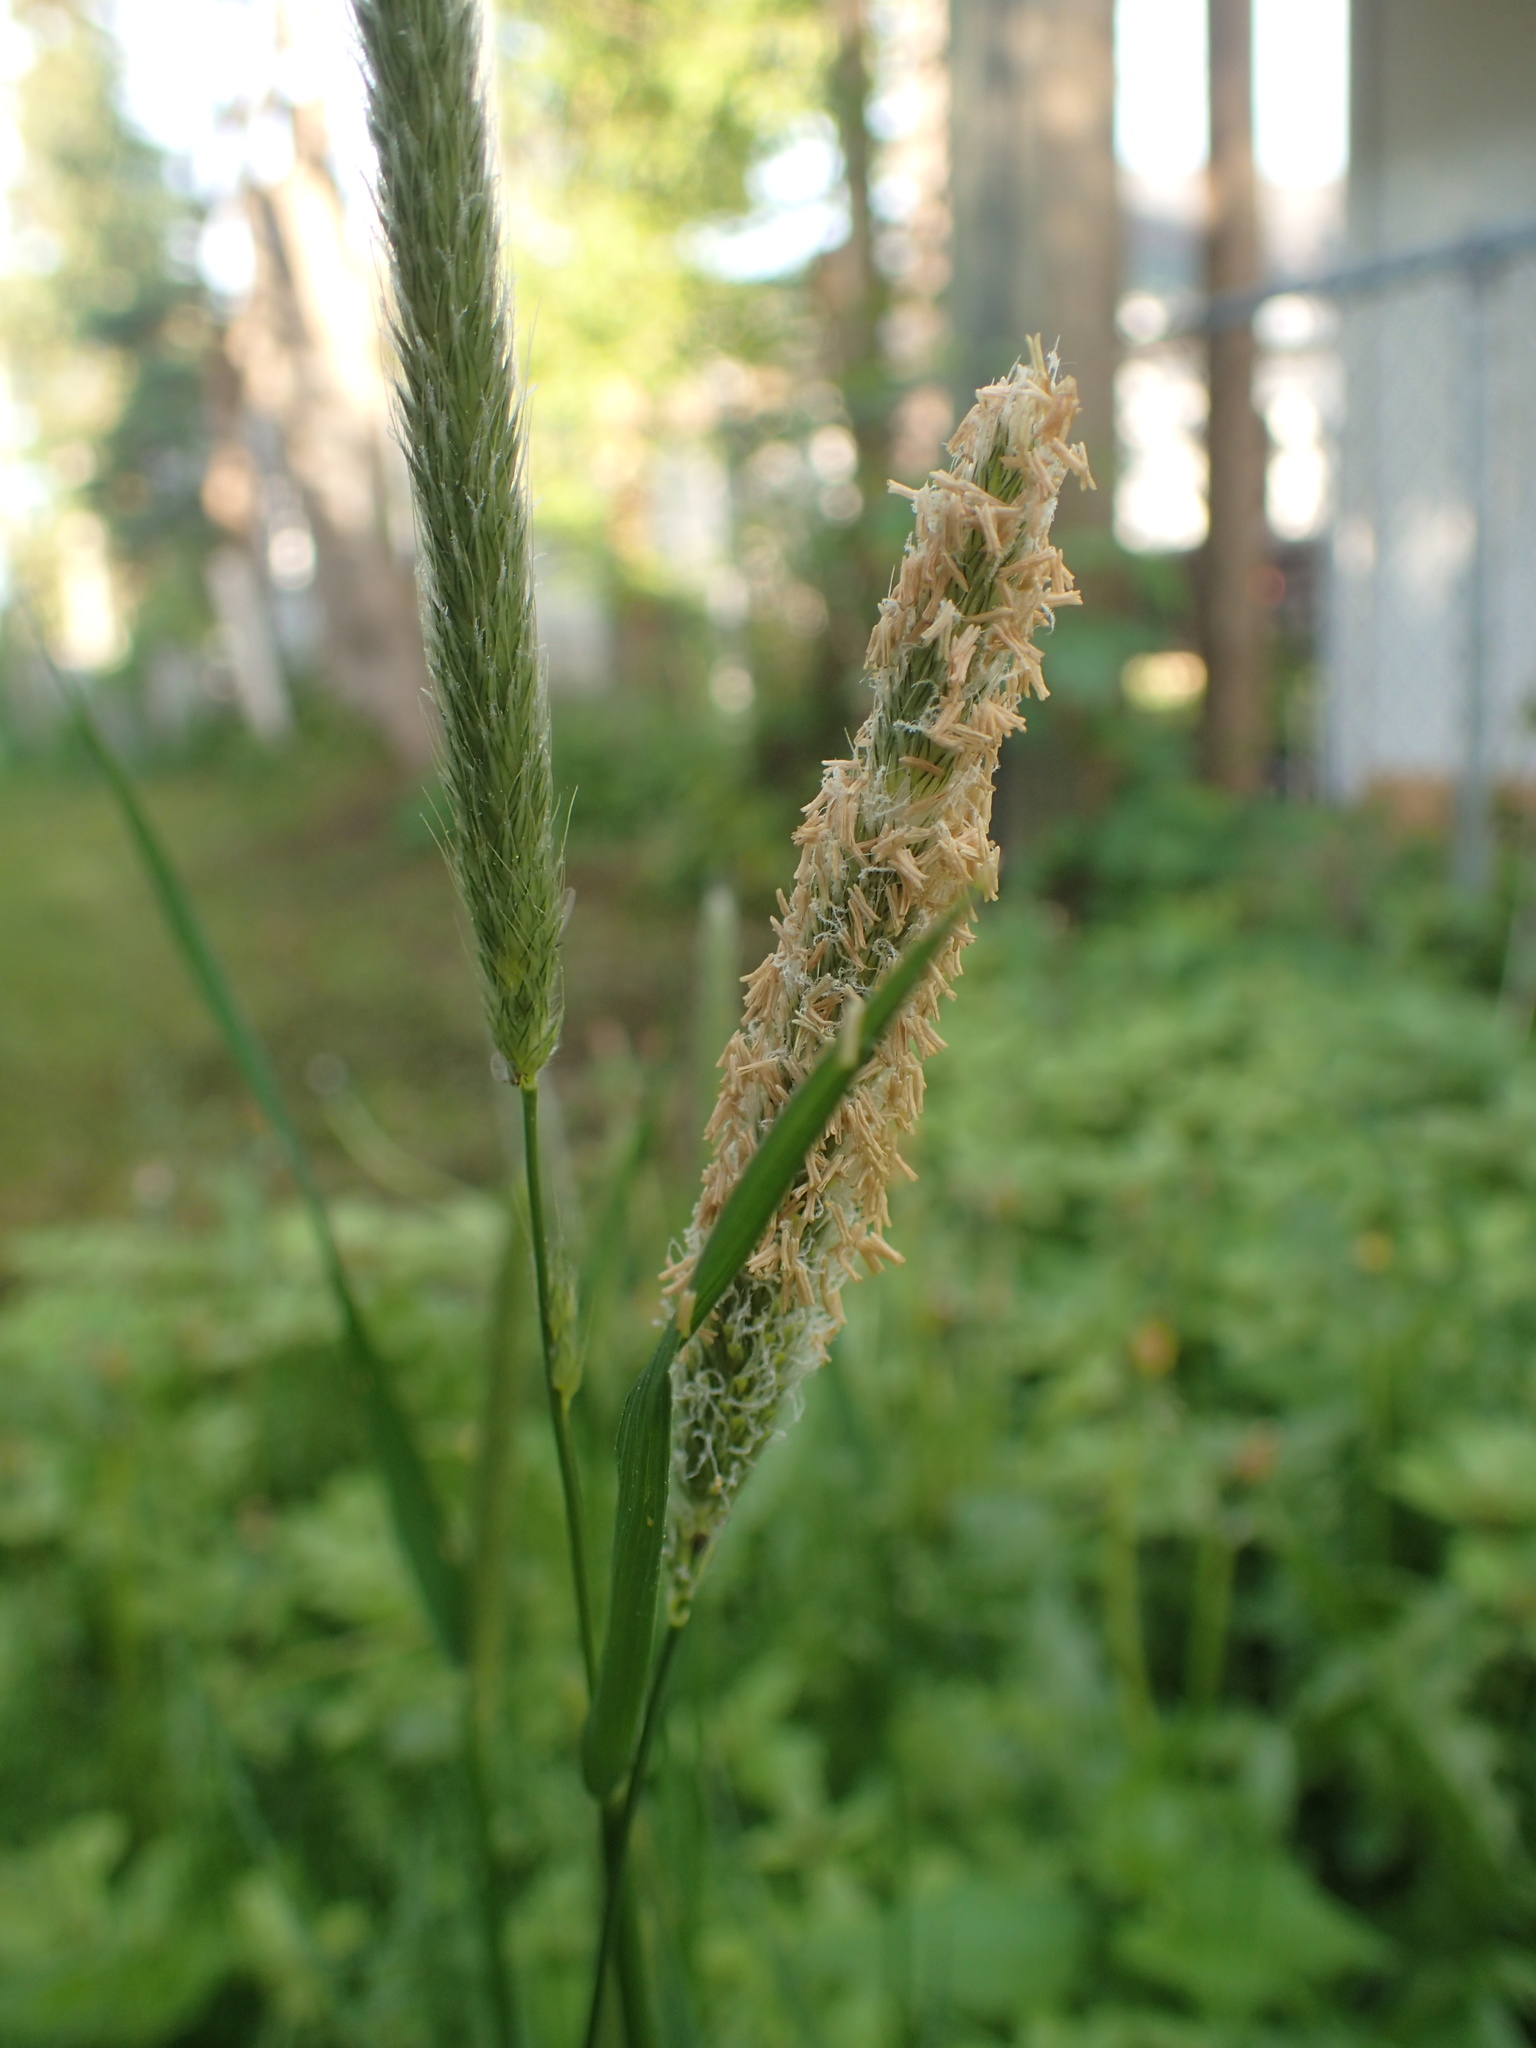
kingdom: Plantae
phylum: Tracheophyta
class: Liliopsida
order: Poales
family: Poaceae
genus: Alopecurus
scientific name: Alopecurus pratensis
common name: Meadow foxtail
